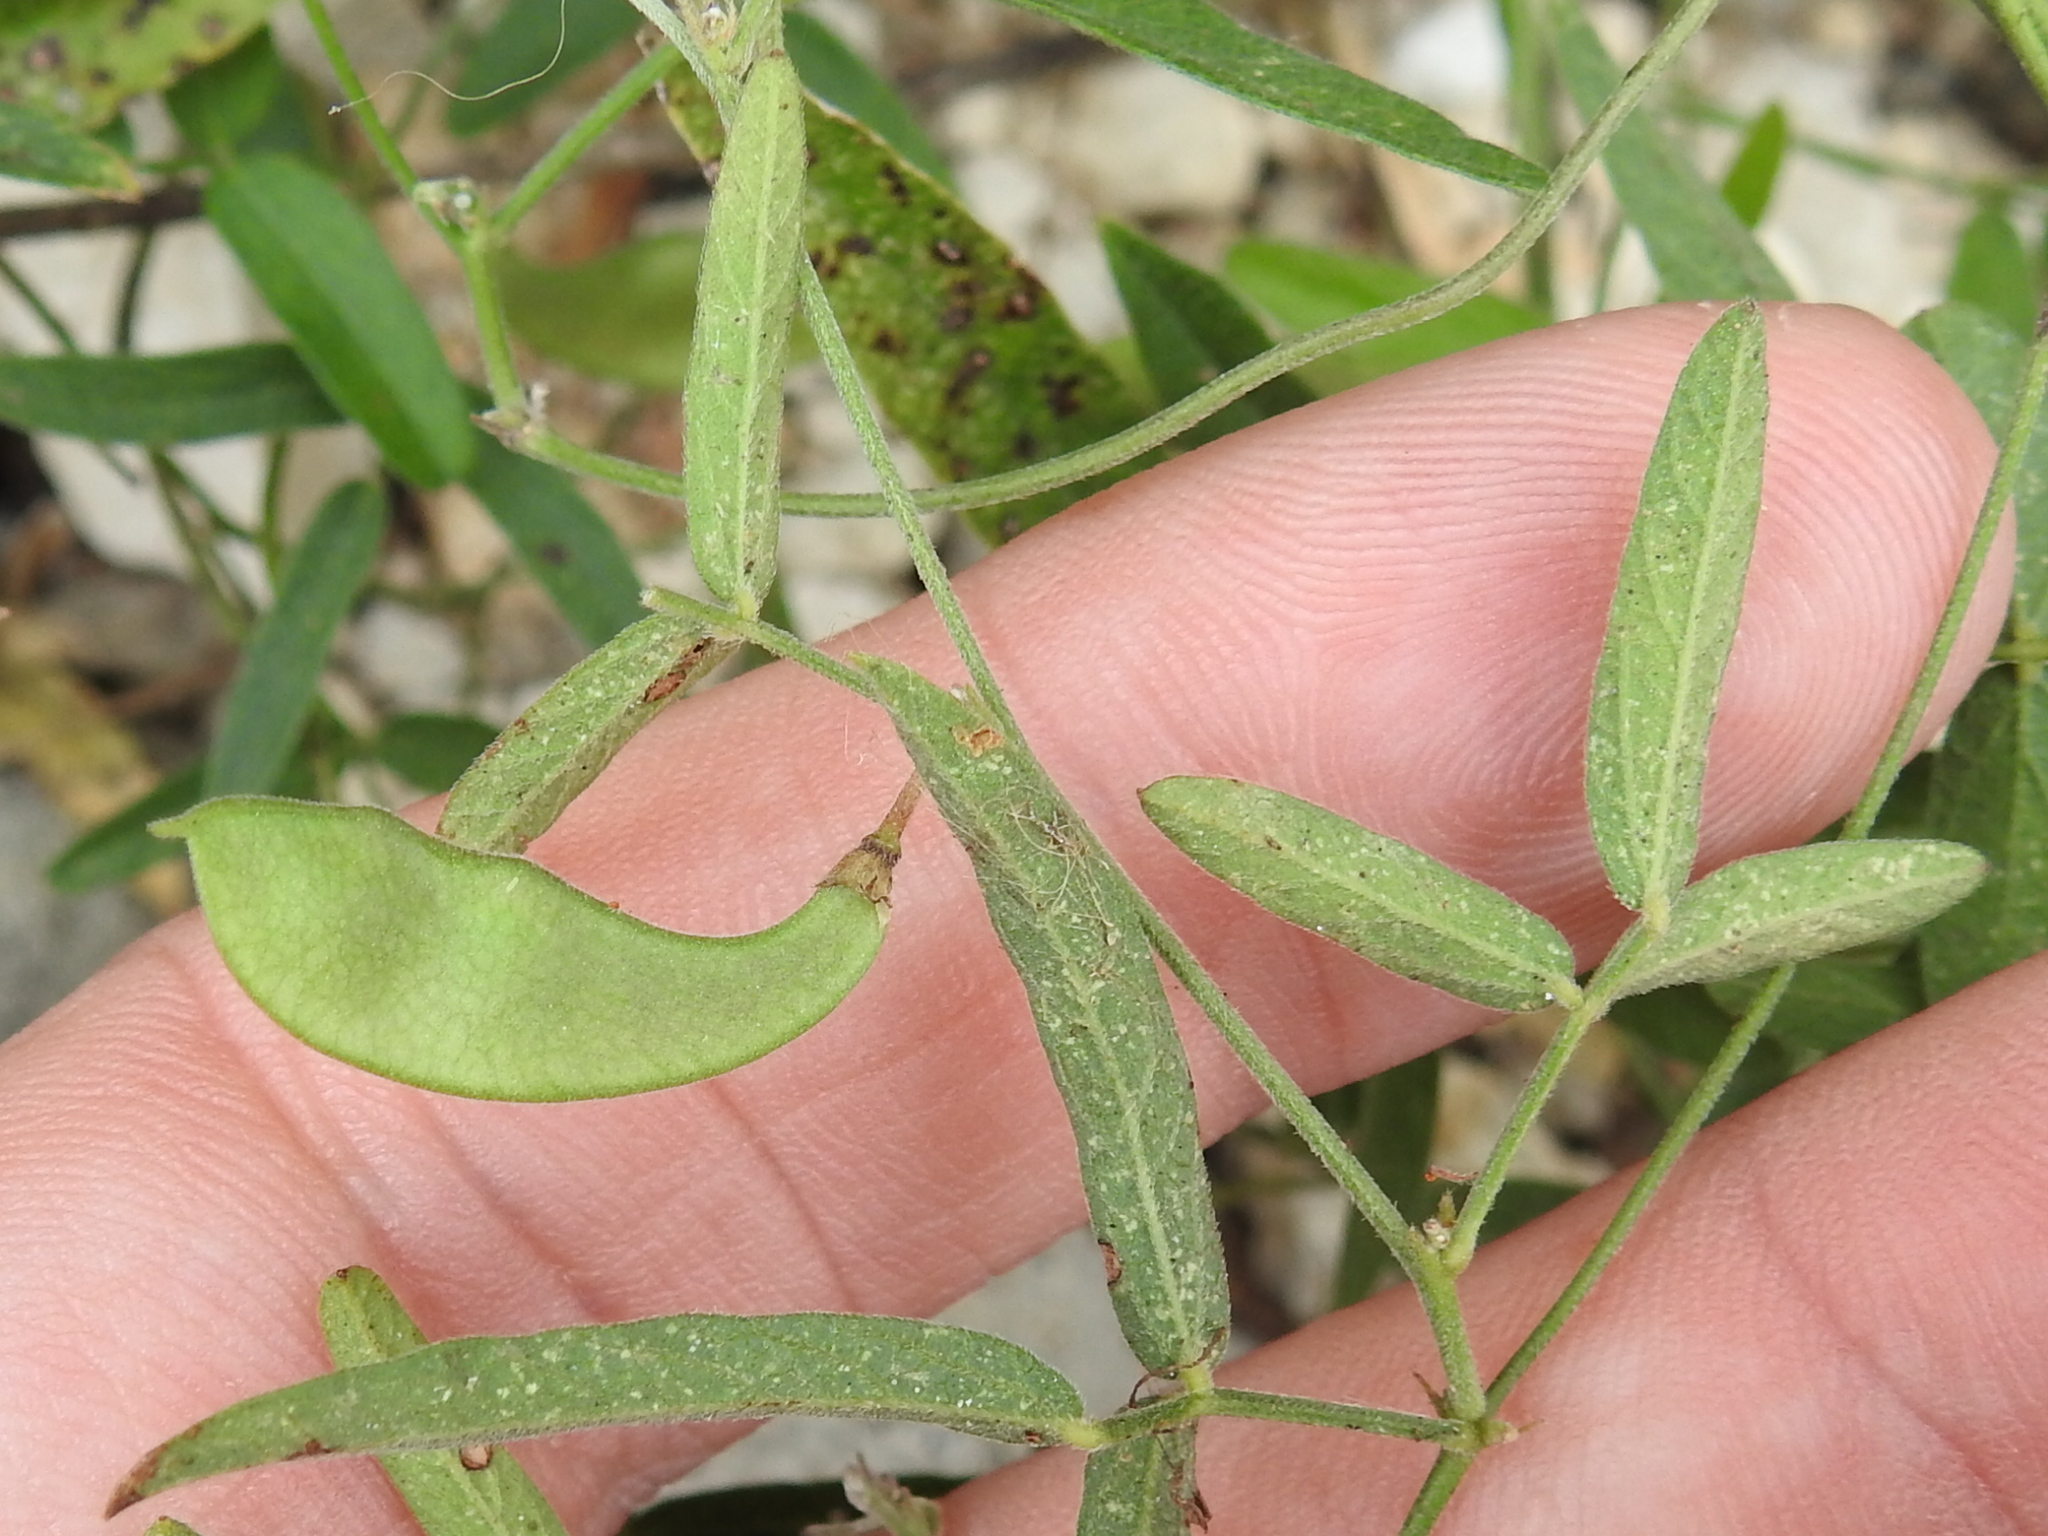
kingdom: Plantae
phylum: Tracheophyta
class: Magnoliopsida
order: Fabales
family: Fabaceae
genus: Rhynchosia
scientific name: Rhynchosia senna
